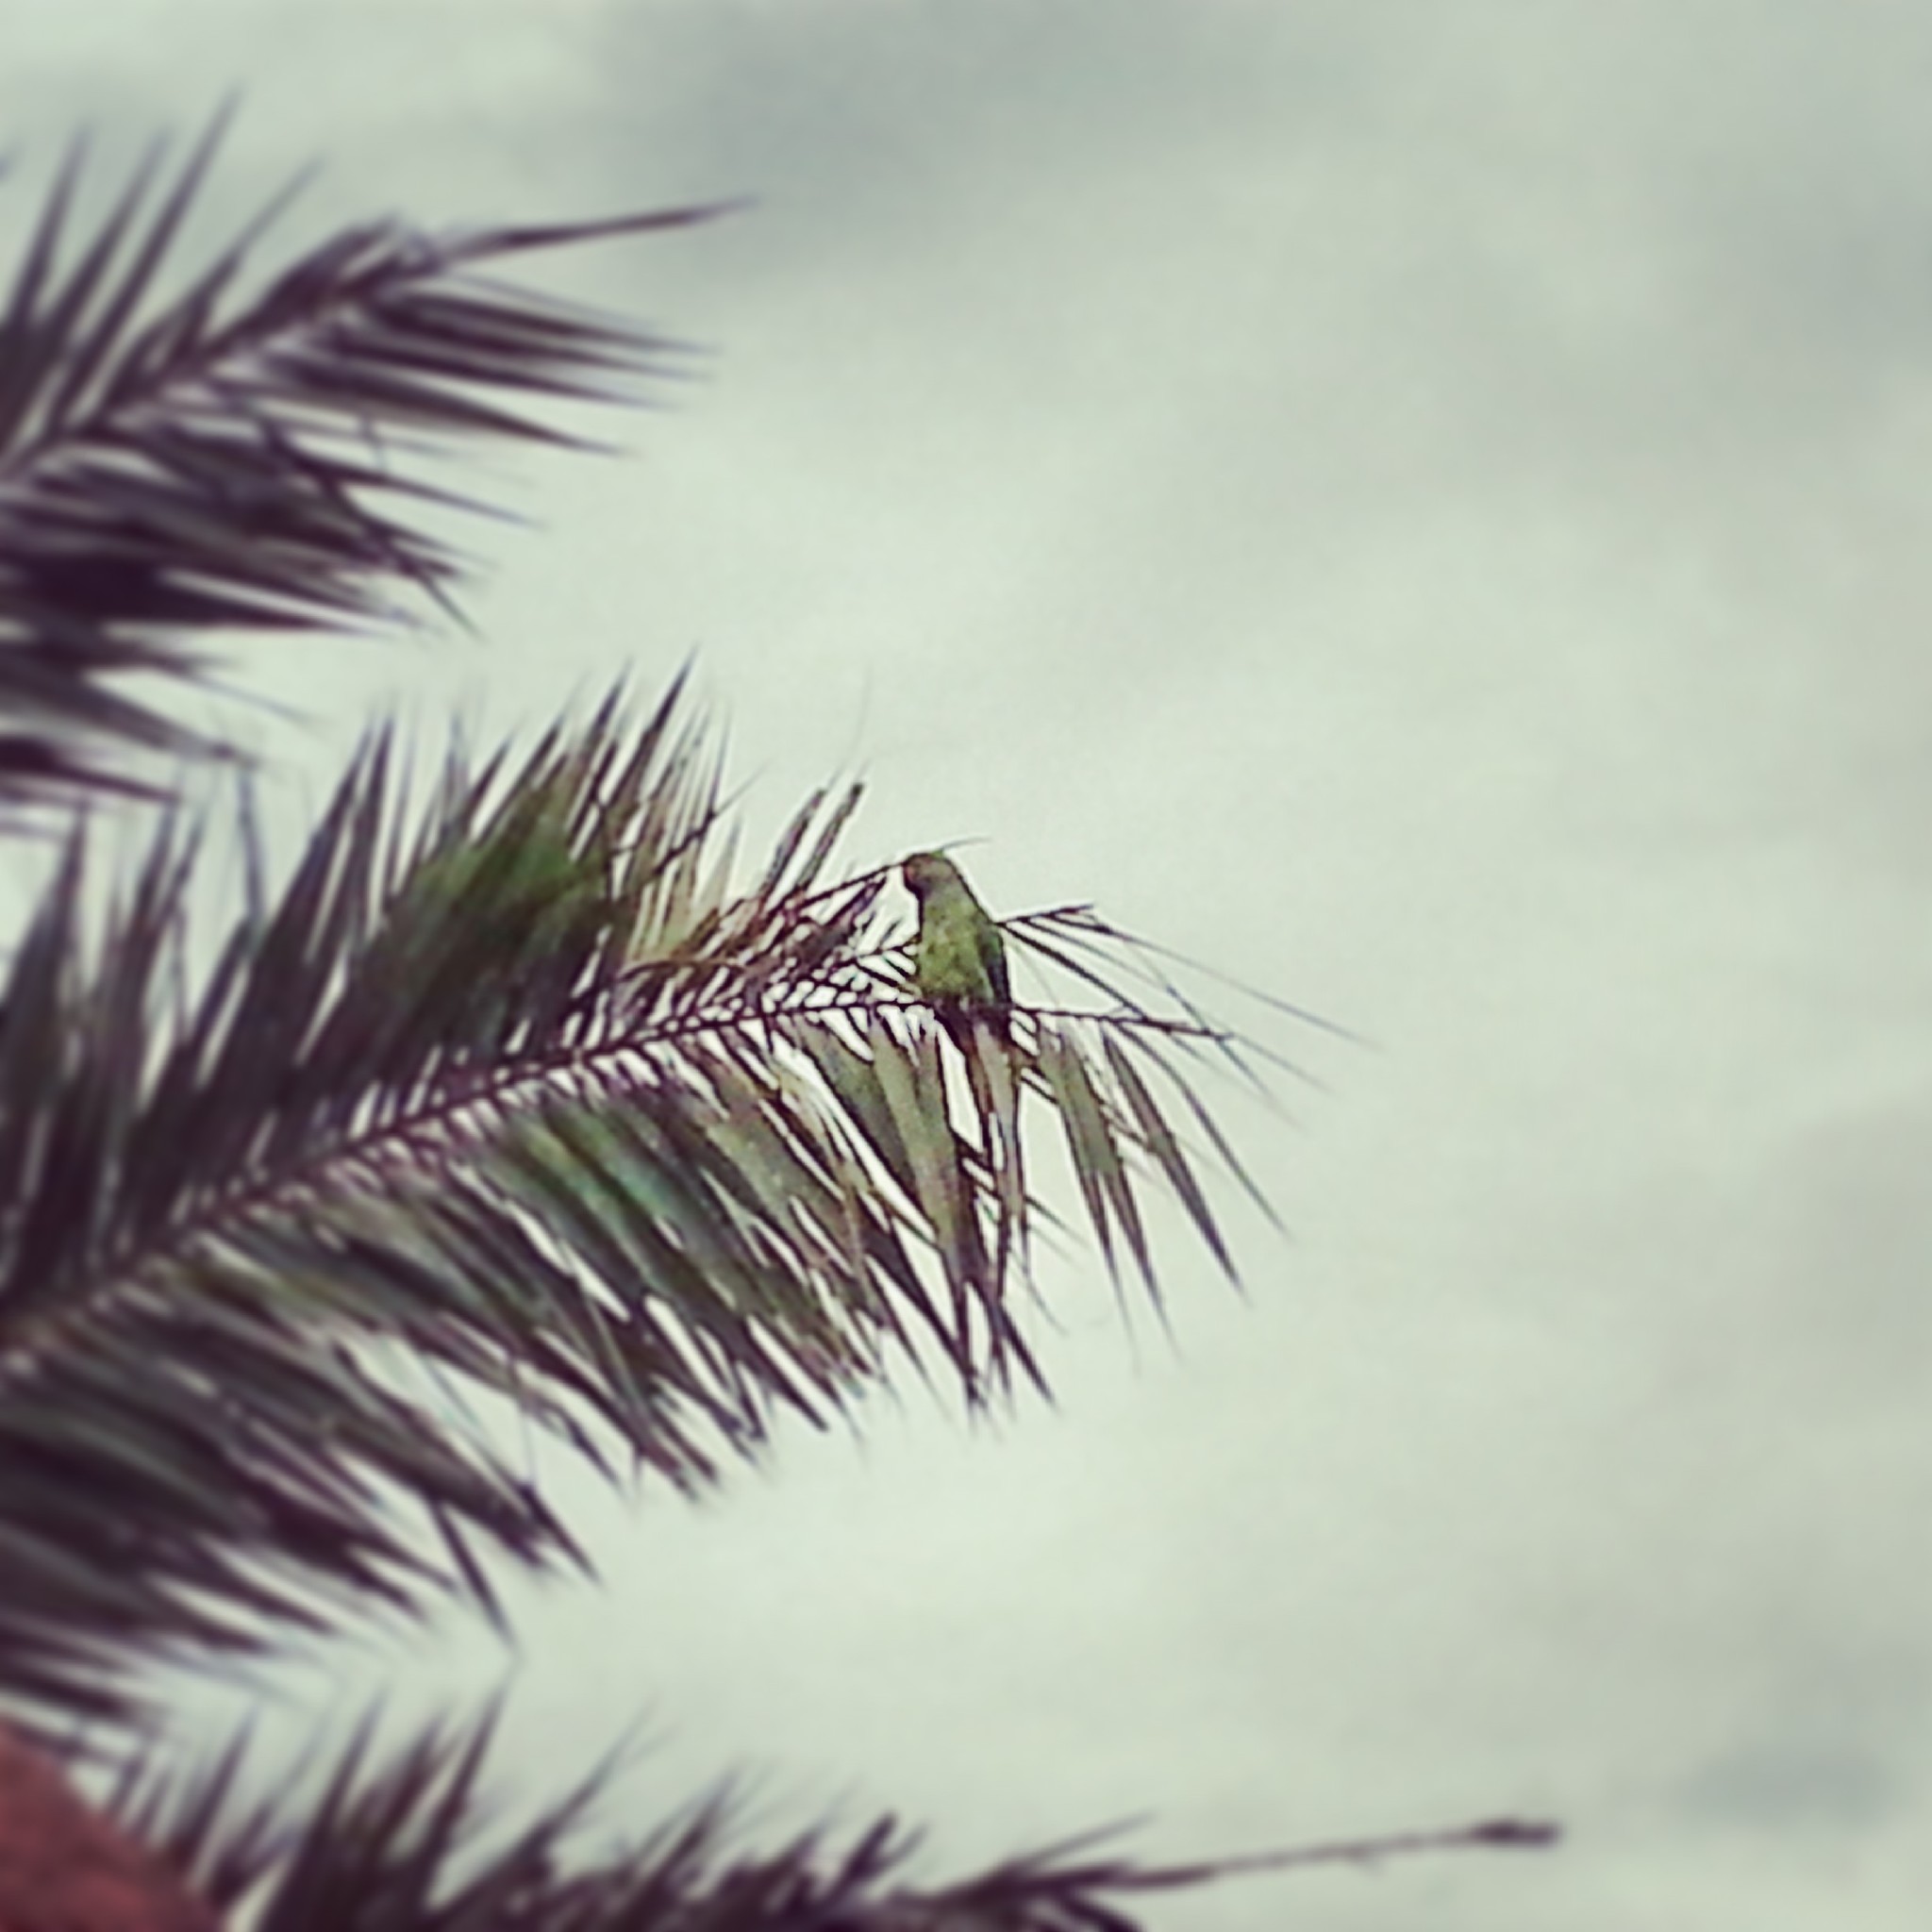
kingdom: Animalia
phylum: Chordata
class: Aves
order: Psittaciformes
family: Psittacidae
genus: Psittacula
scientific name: Psittacula krameri
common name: Rose-ringed parakeet
